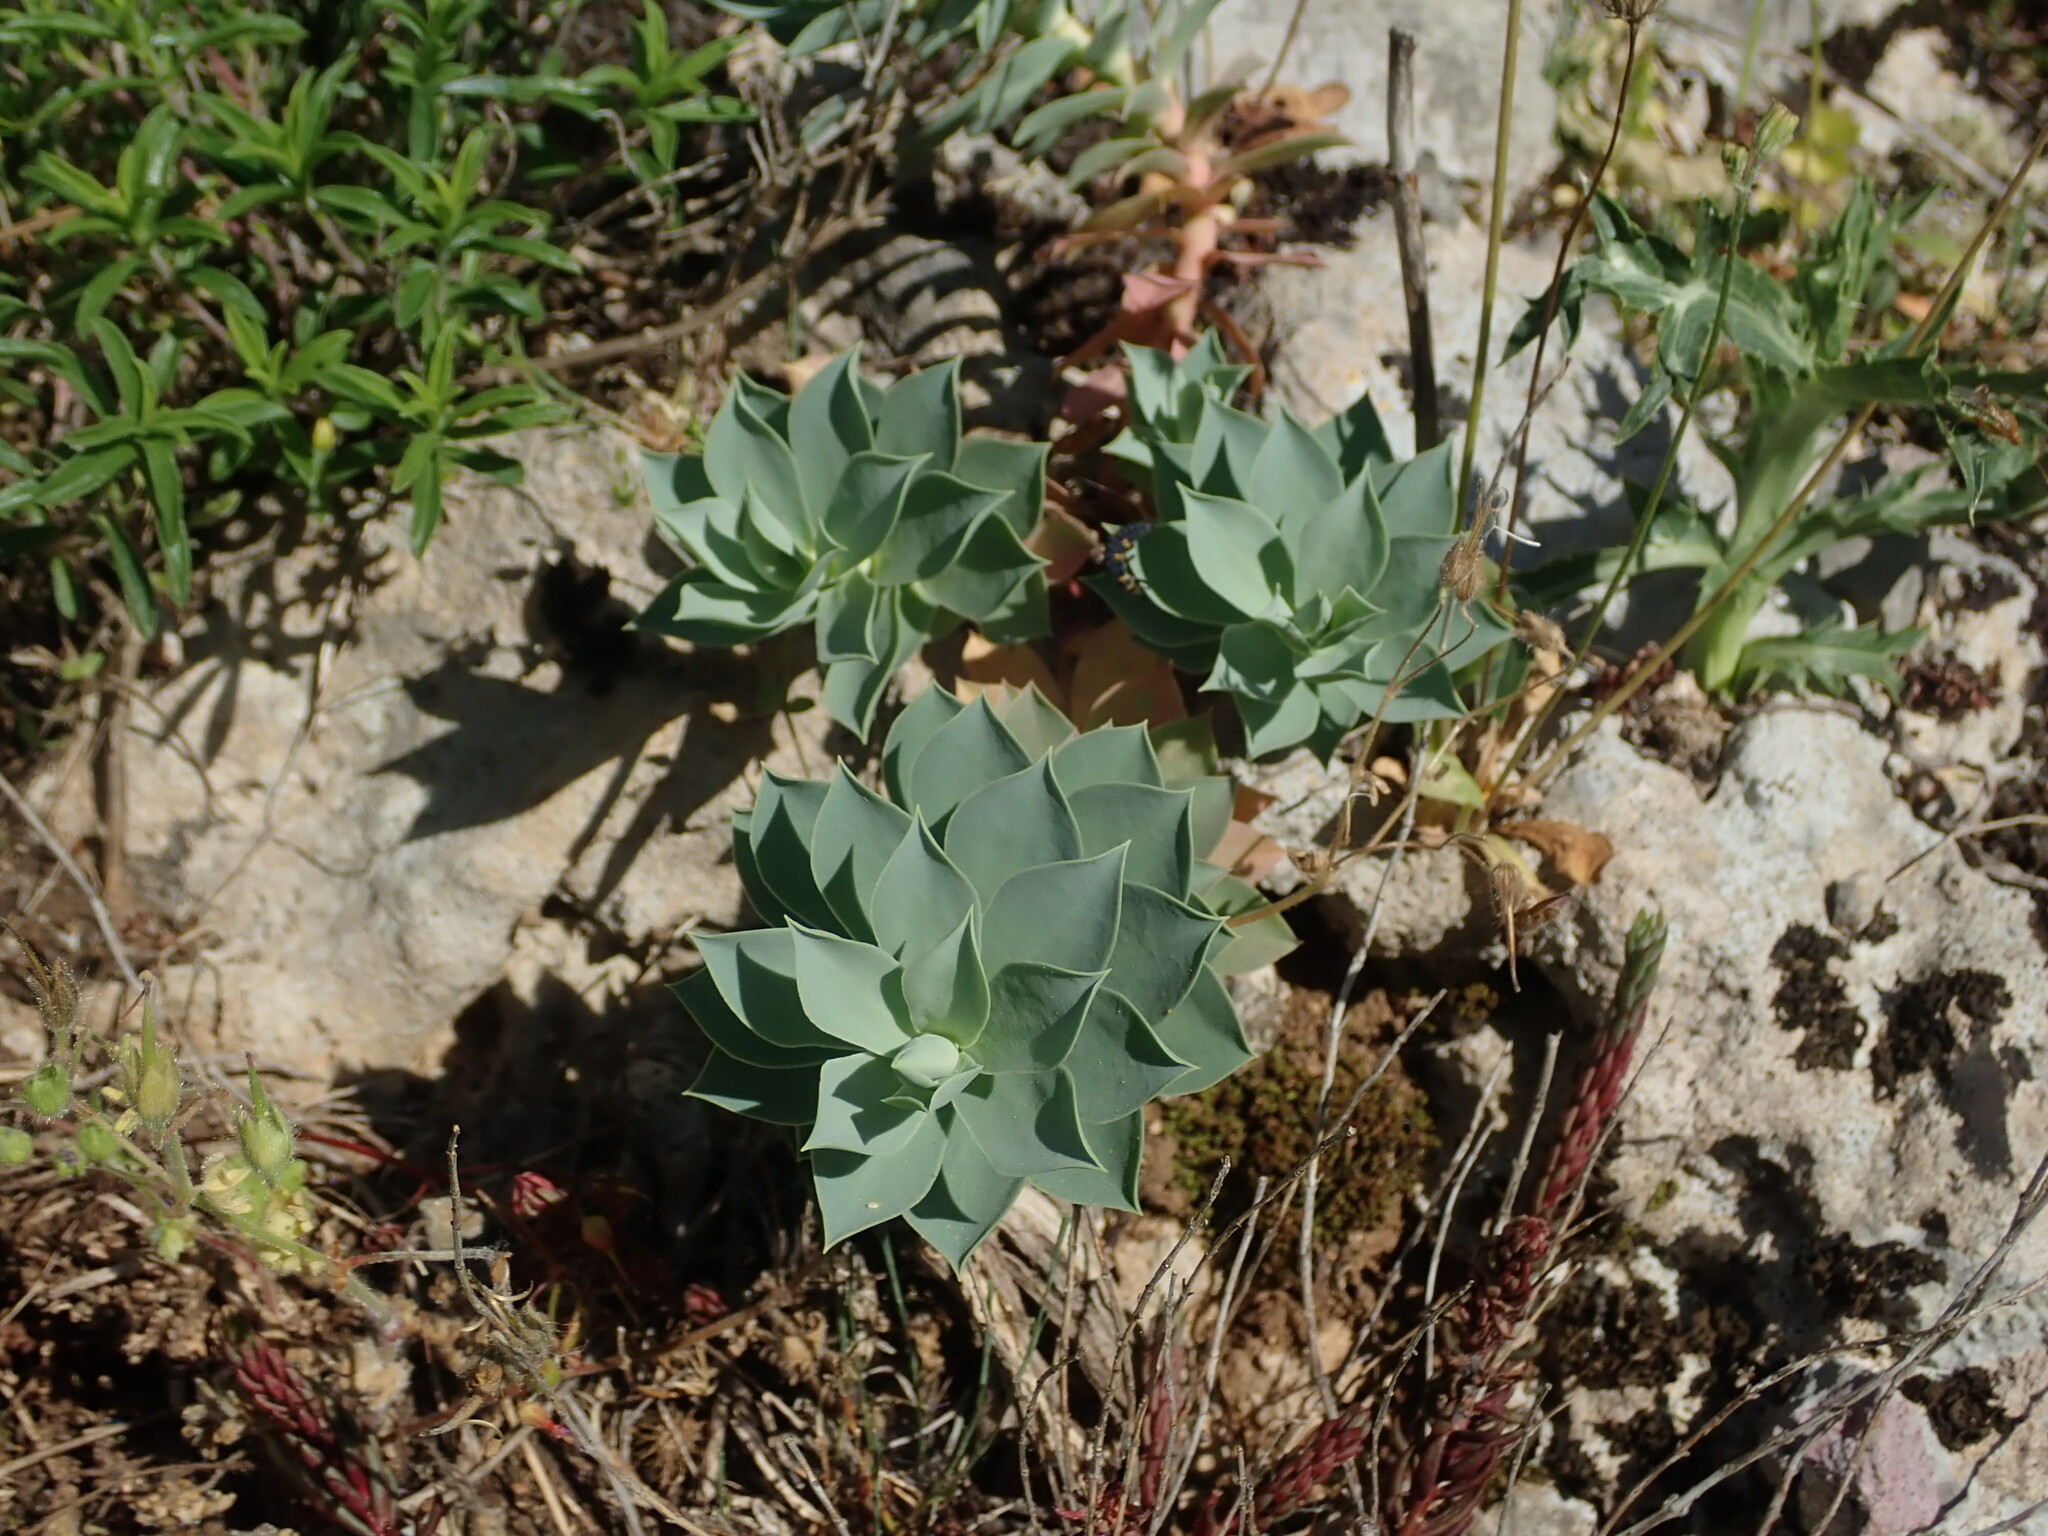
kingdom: Plantae
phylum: Tracheophyta
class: Magnoliopsida
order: Malpighiales
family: Euphorbiaceae
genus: Euphorbia
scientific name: Euphorbia myrsinites
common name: Myrtle spurge
